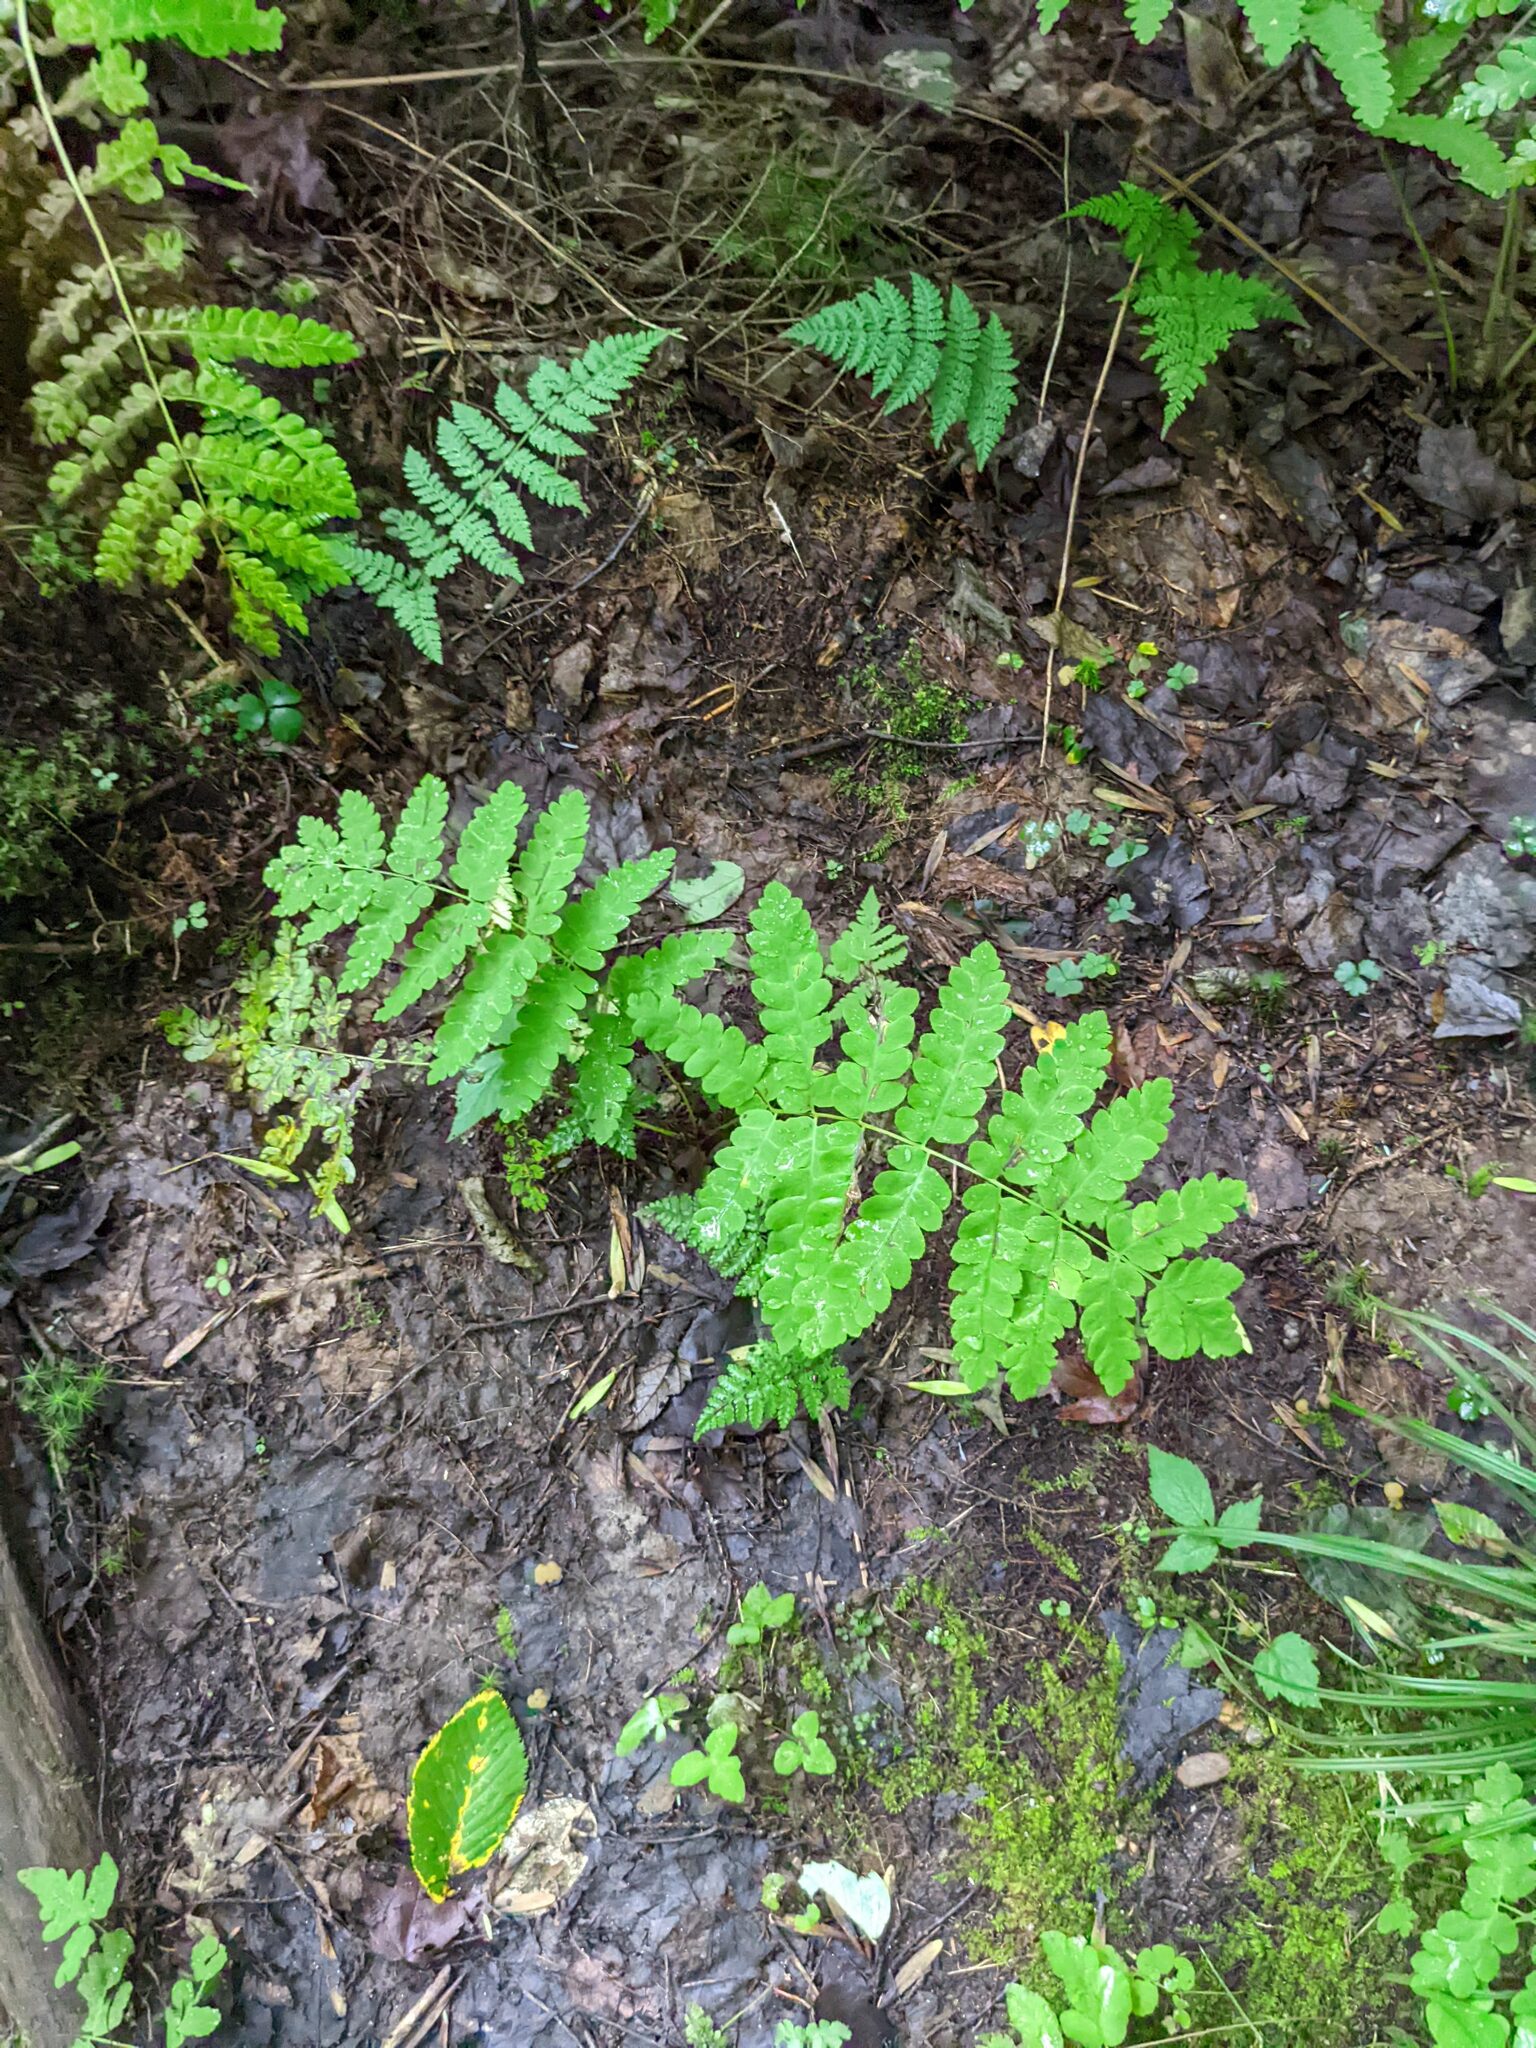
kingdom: Plantae
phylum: Tracheophyta
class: Polypodiopsida
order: Osmundales
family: Osmundaceae
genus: Claytosmunda
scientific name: Claytosmunda claytoniana
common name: Clayton's fern
